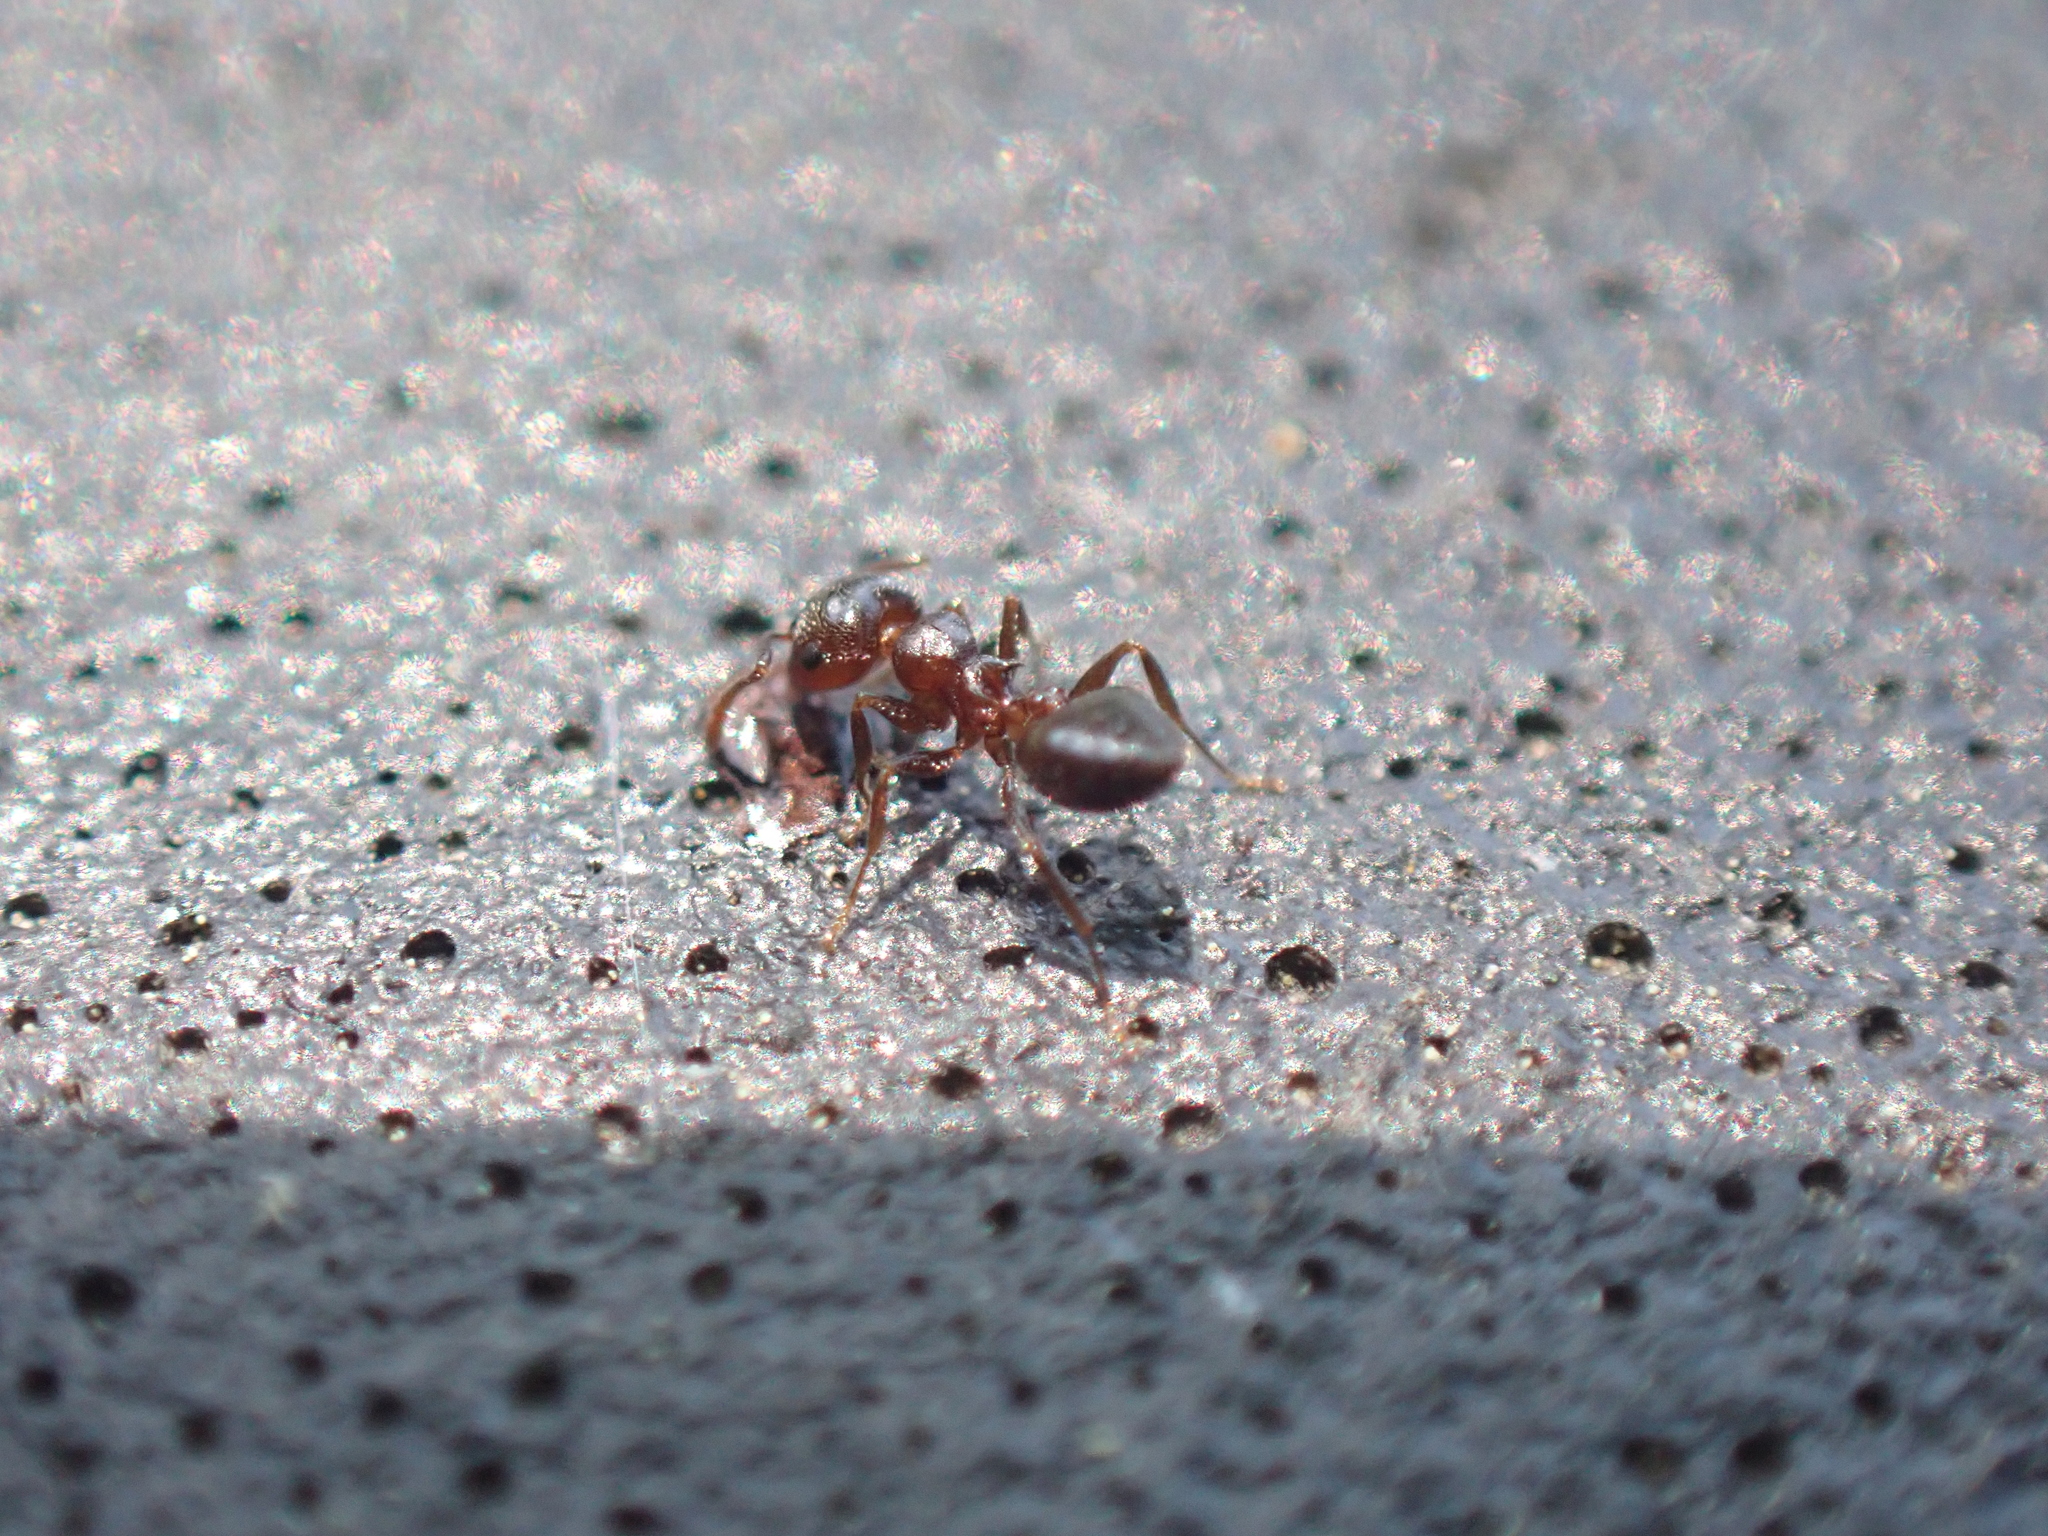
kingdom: Animalia
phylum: Arthropoda
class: Insecta
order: Hymenoptera
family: Formicidae
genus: Crematogaster
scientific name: Crematogaster ashmeadi
